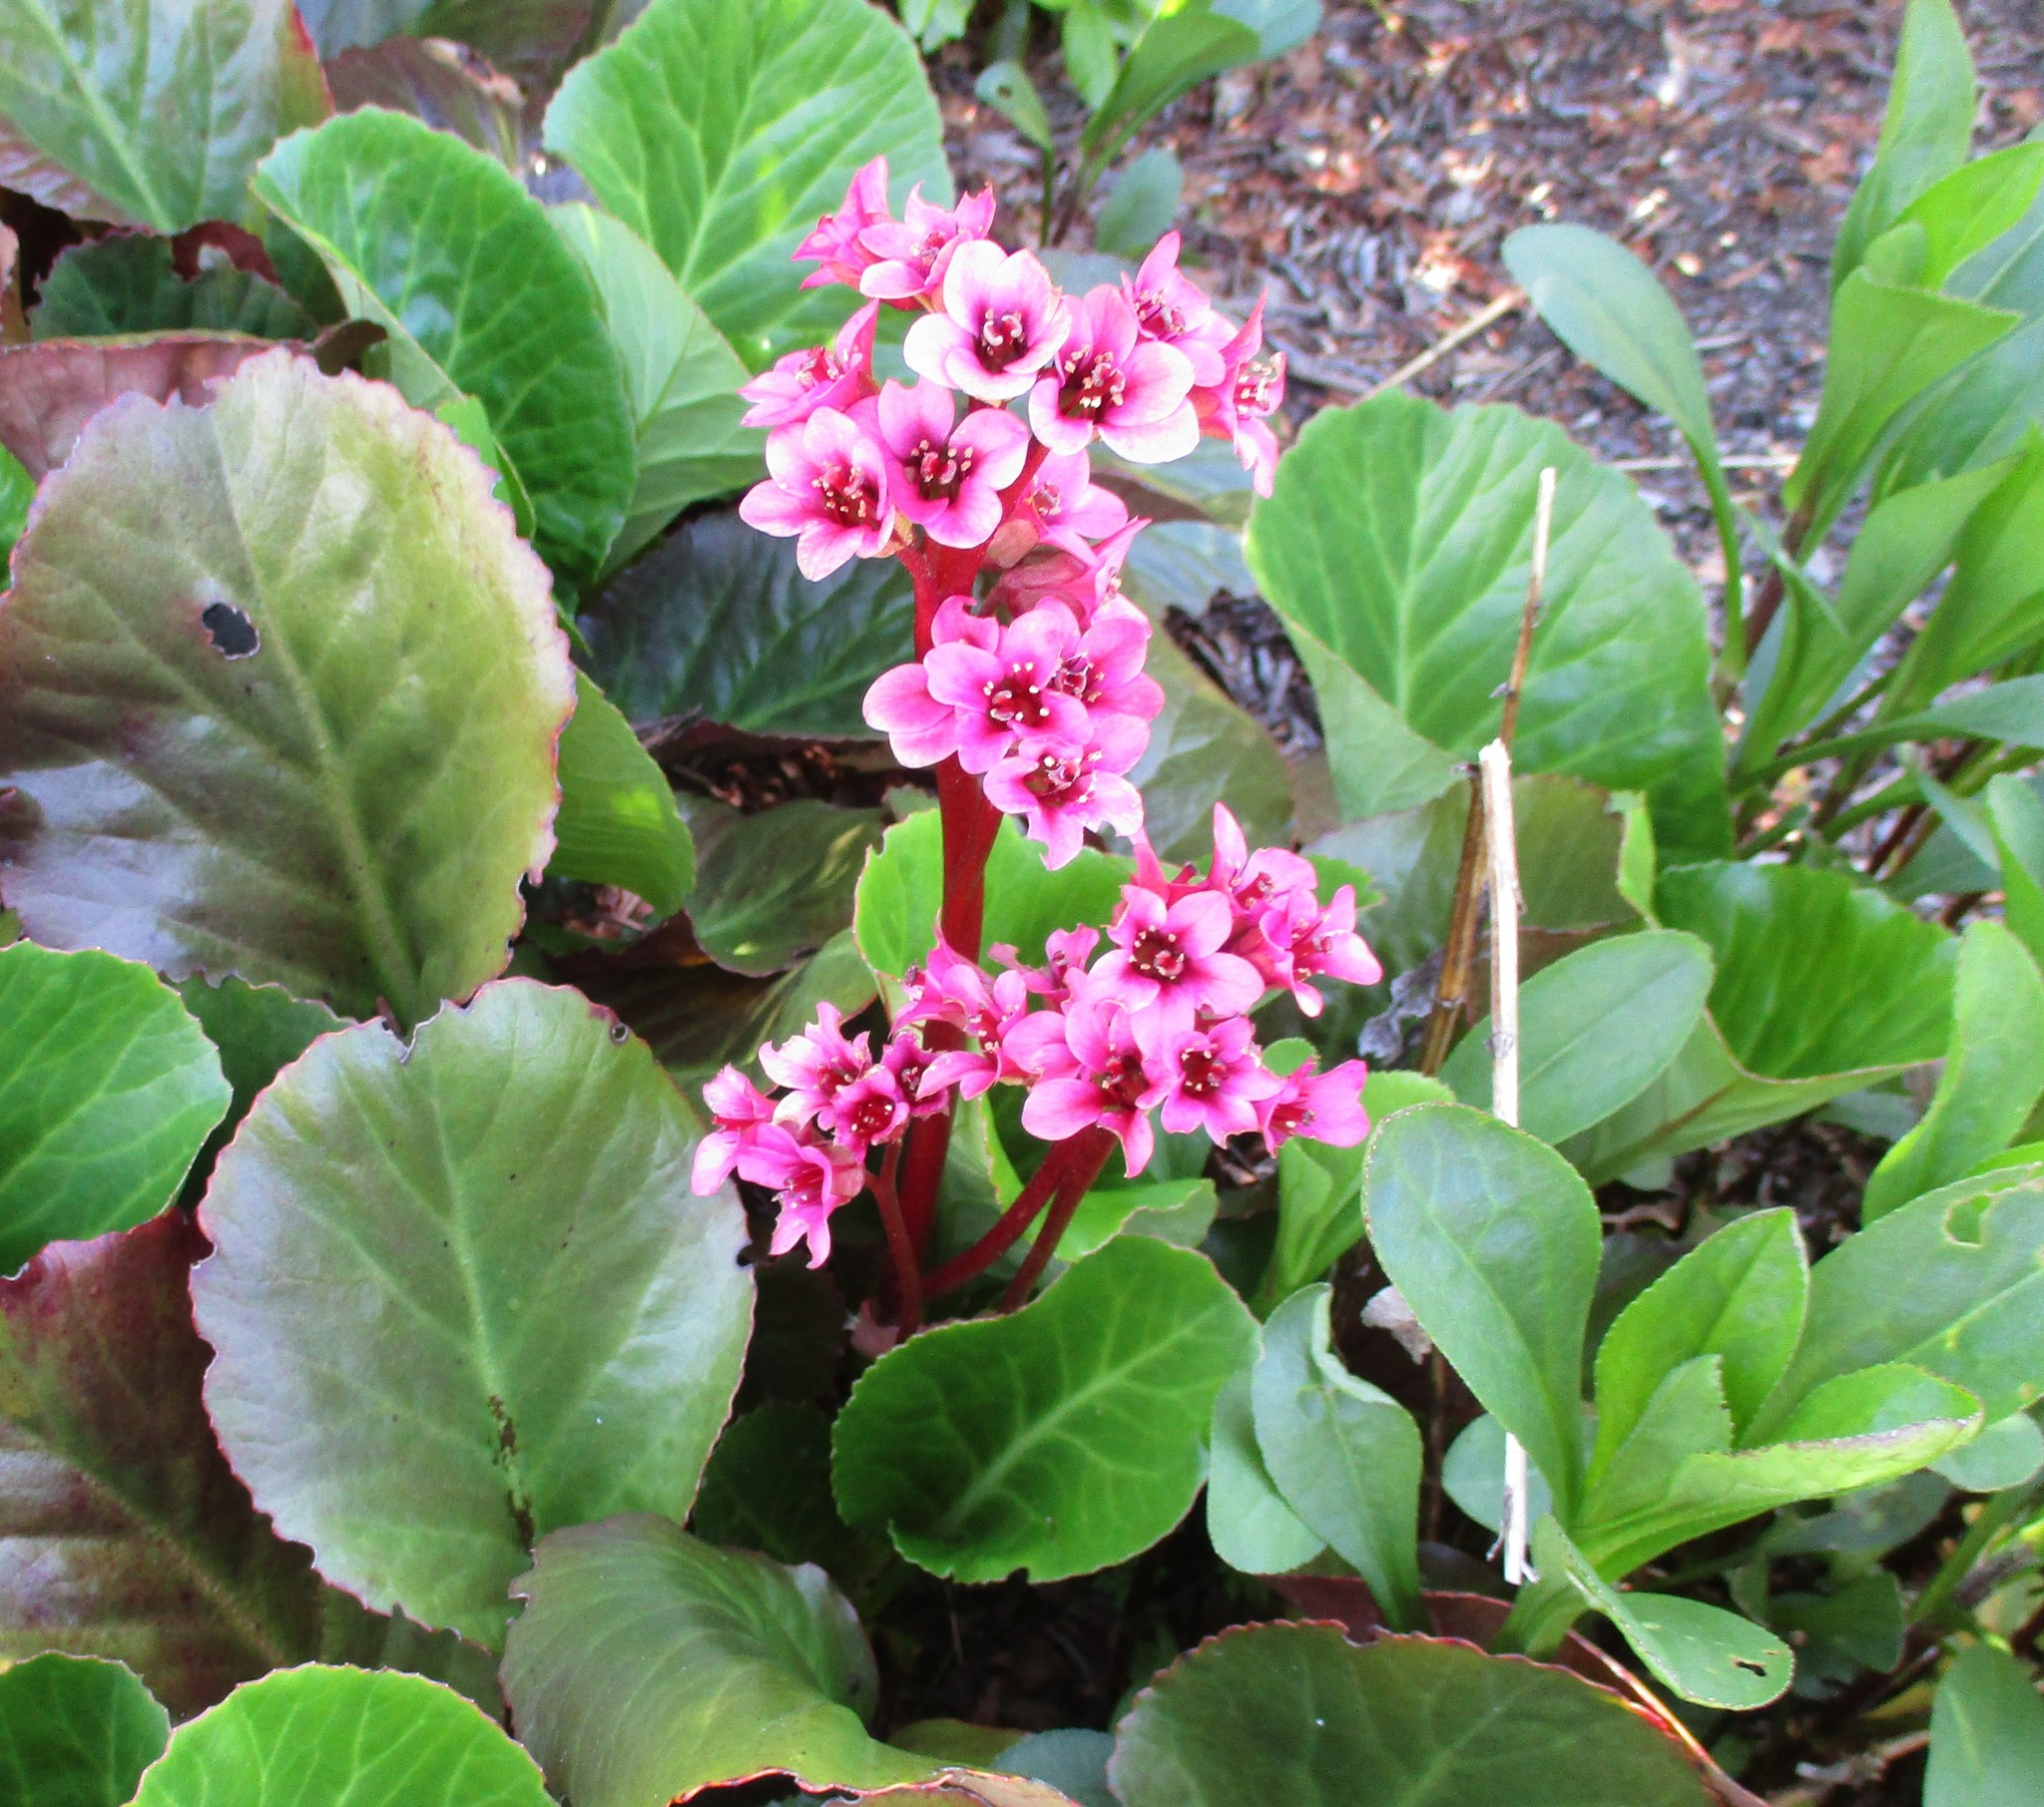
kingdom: Plantae
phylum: Tracheophyta
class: Magnoliopsida
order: Saxifragales
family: Saxifragaceae
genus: Bergenia
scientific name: Bergenia crassifolia
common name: Elephant-ears
